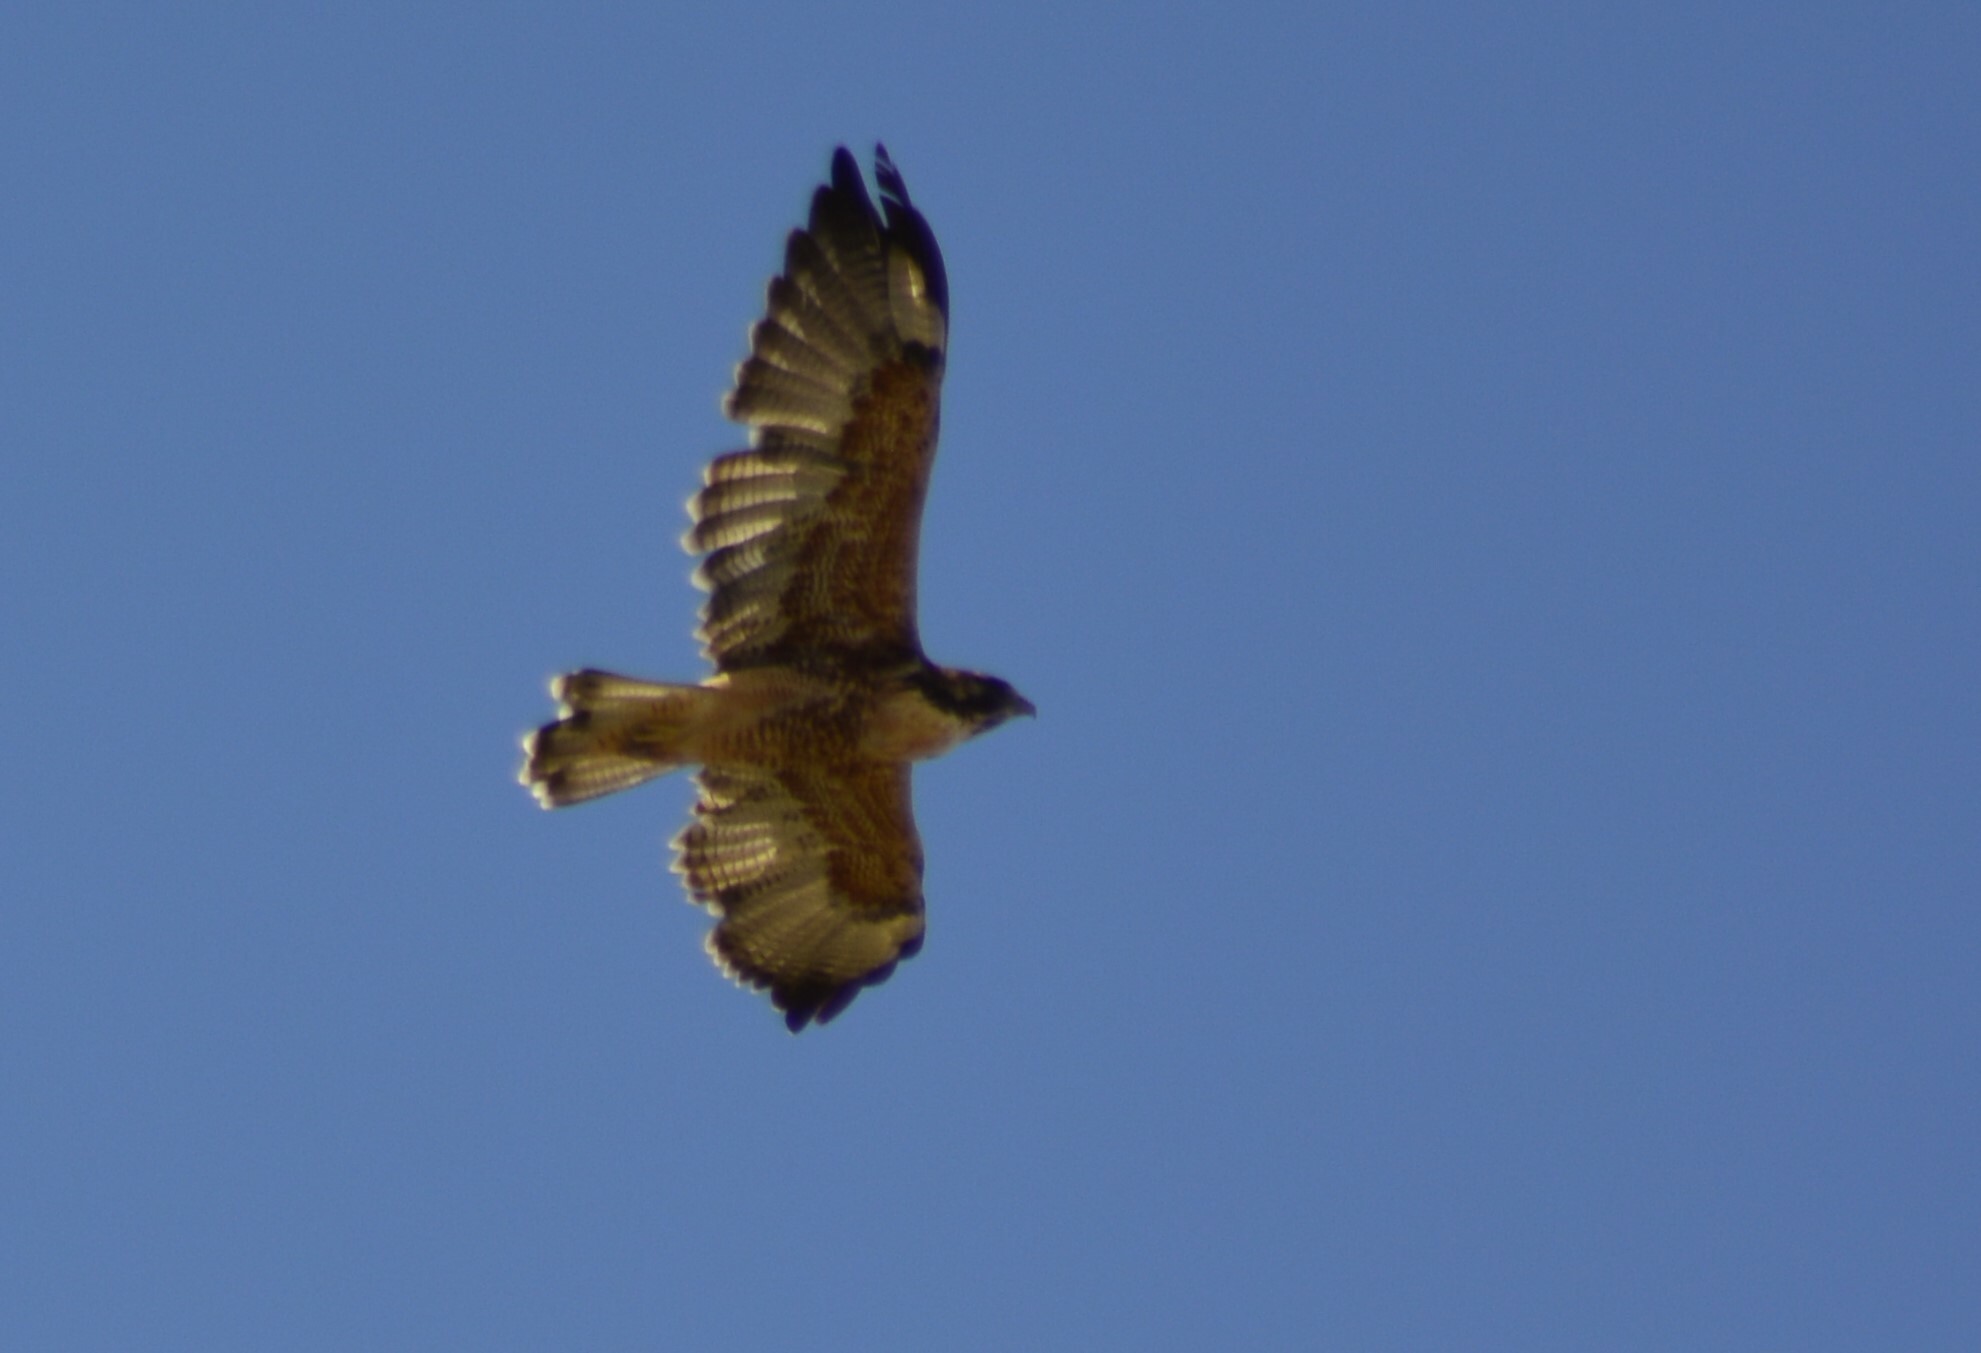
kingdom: Animalia
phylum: Chordata
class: Aves
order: Accipitriformes
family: Accipitridae
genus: Buteo
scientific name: Buteo polyosoma
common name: Variable hawk
